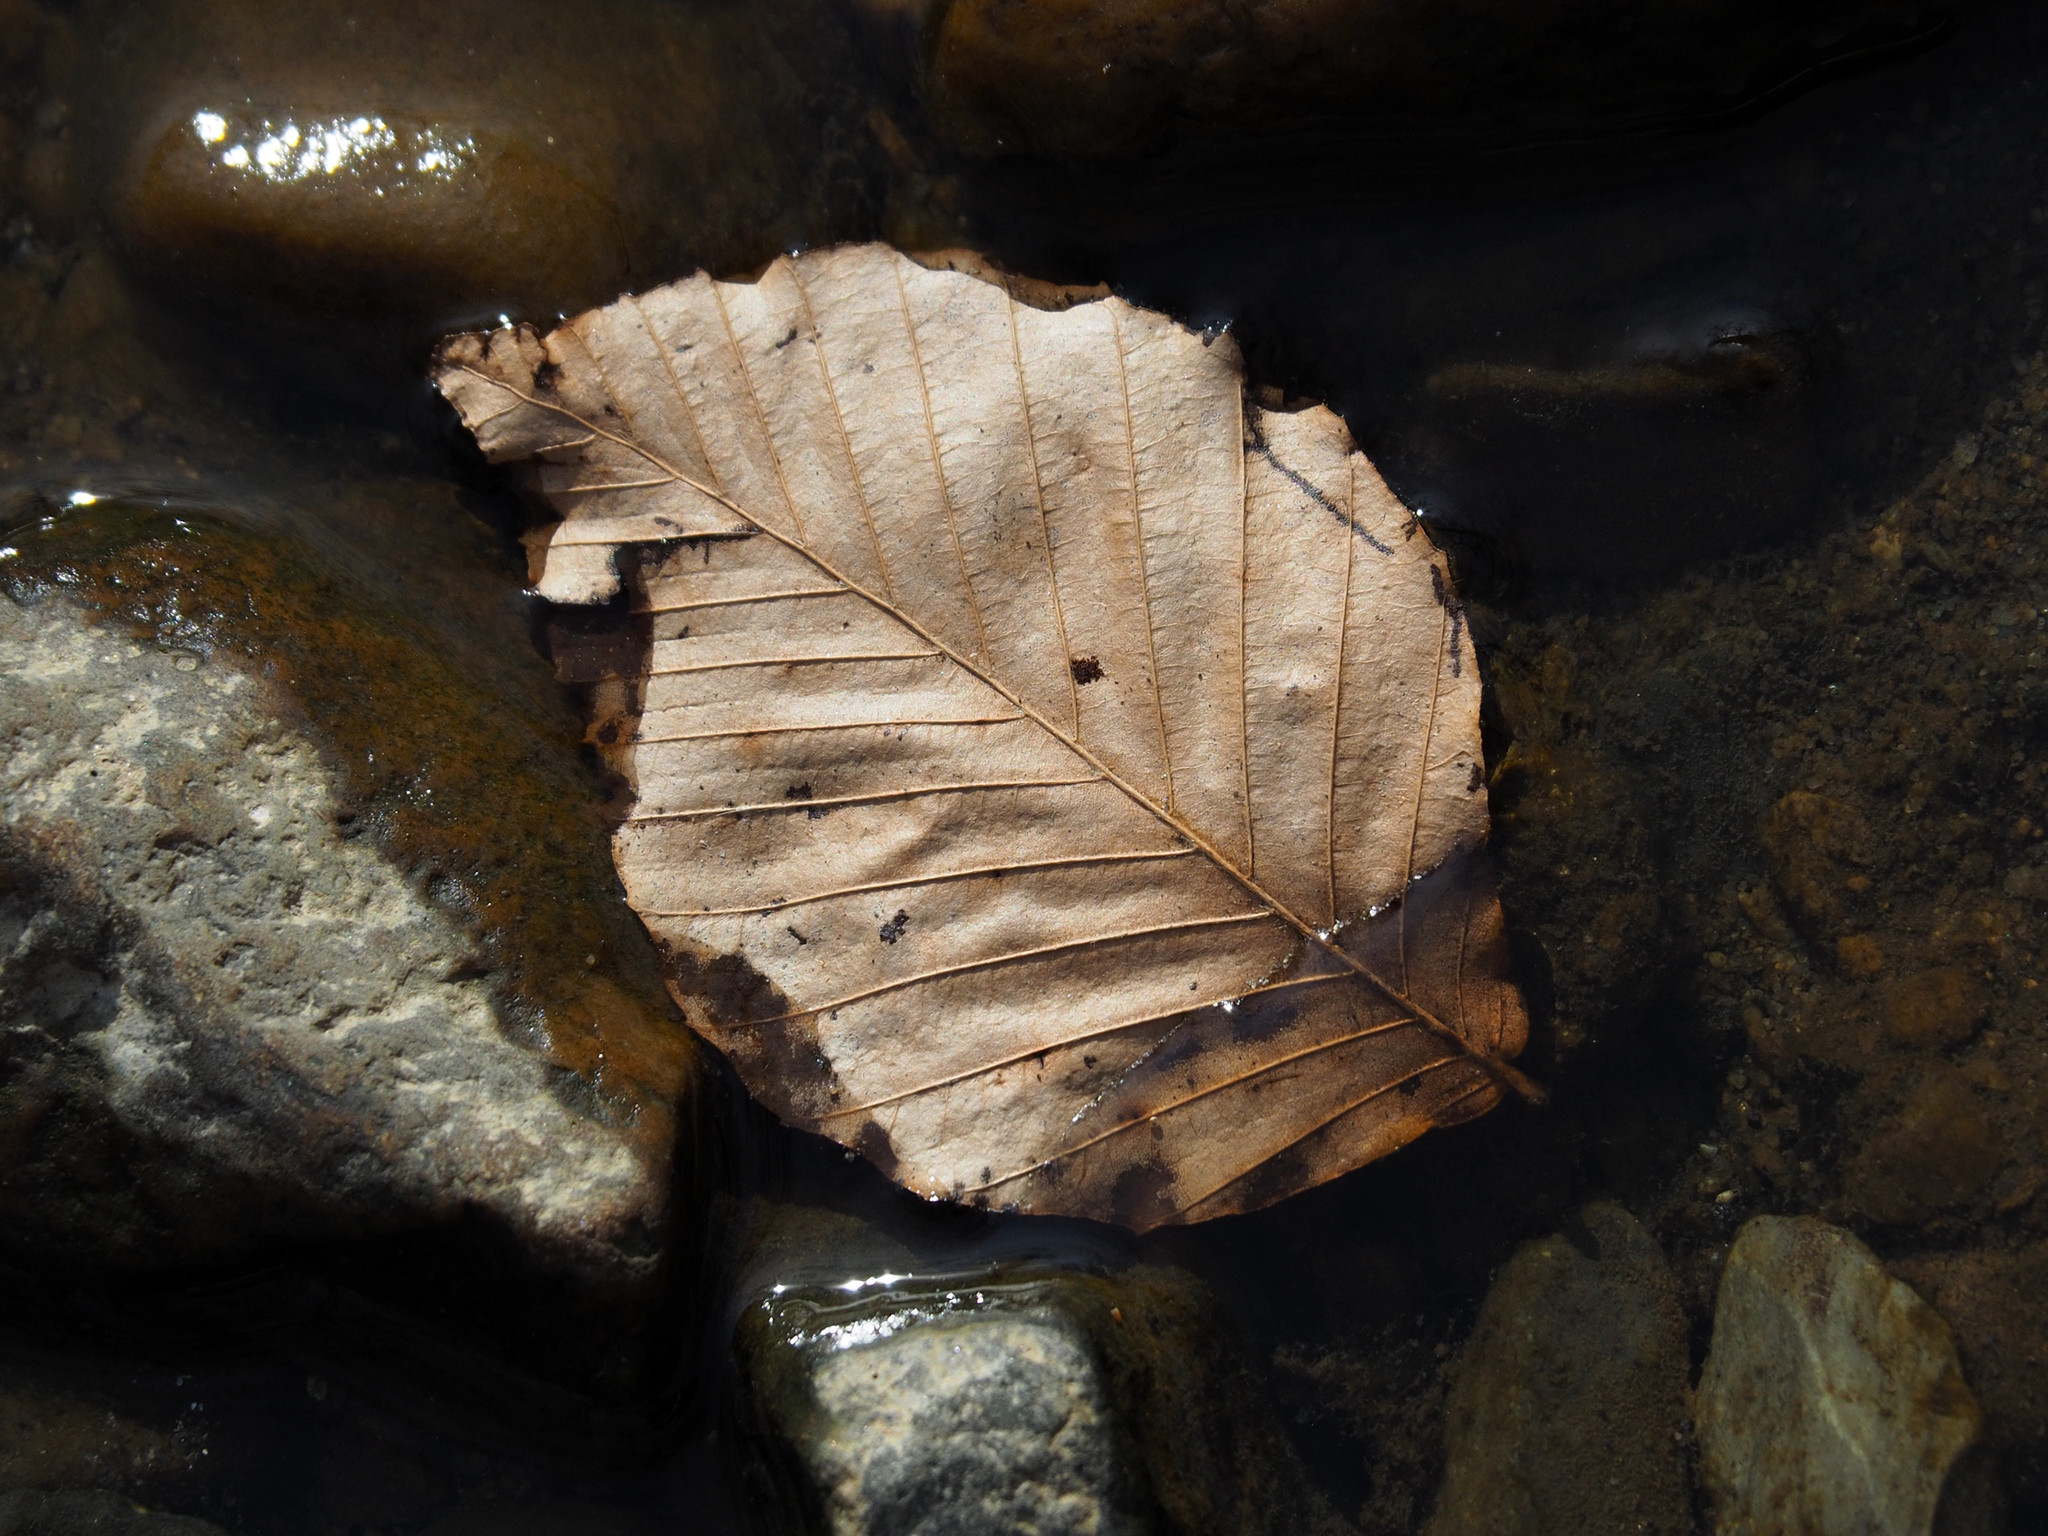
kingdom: Plantae
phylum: Tracheophyta
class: Magnoliopsida
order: Fagales
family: Fagaceae
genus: Fagus
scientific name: Fagus grandifolia
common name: American beech
